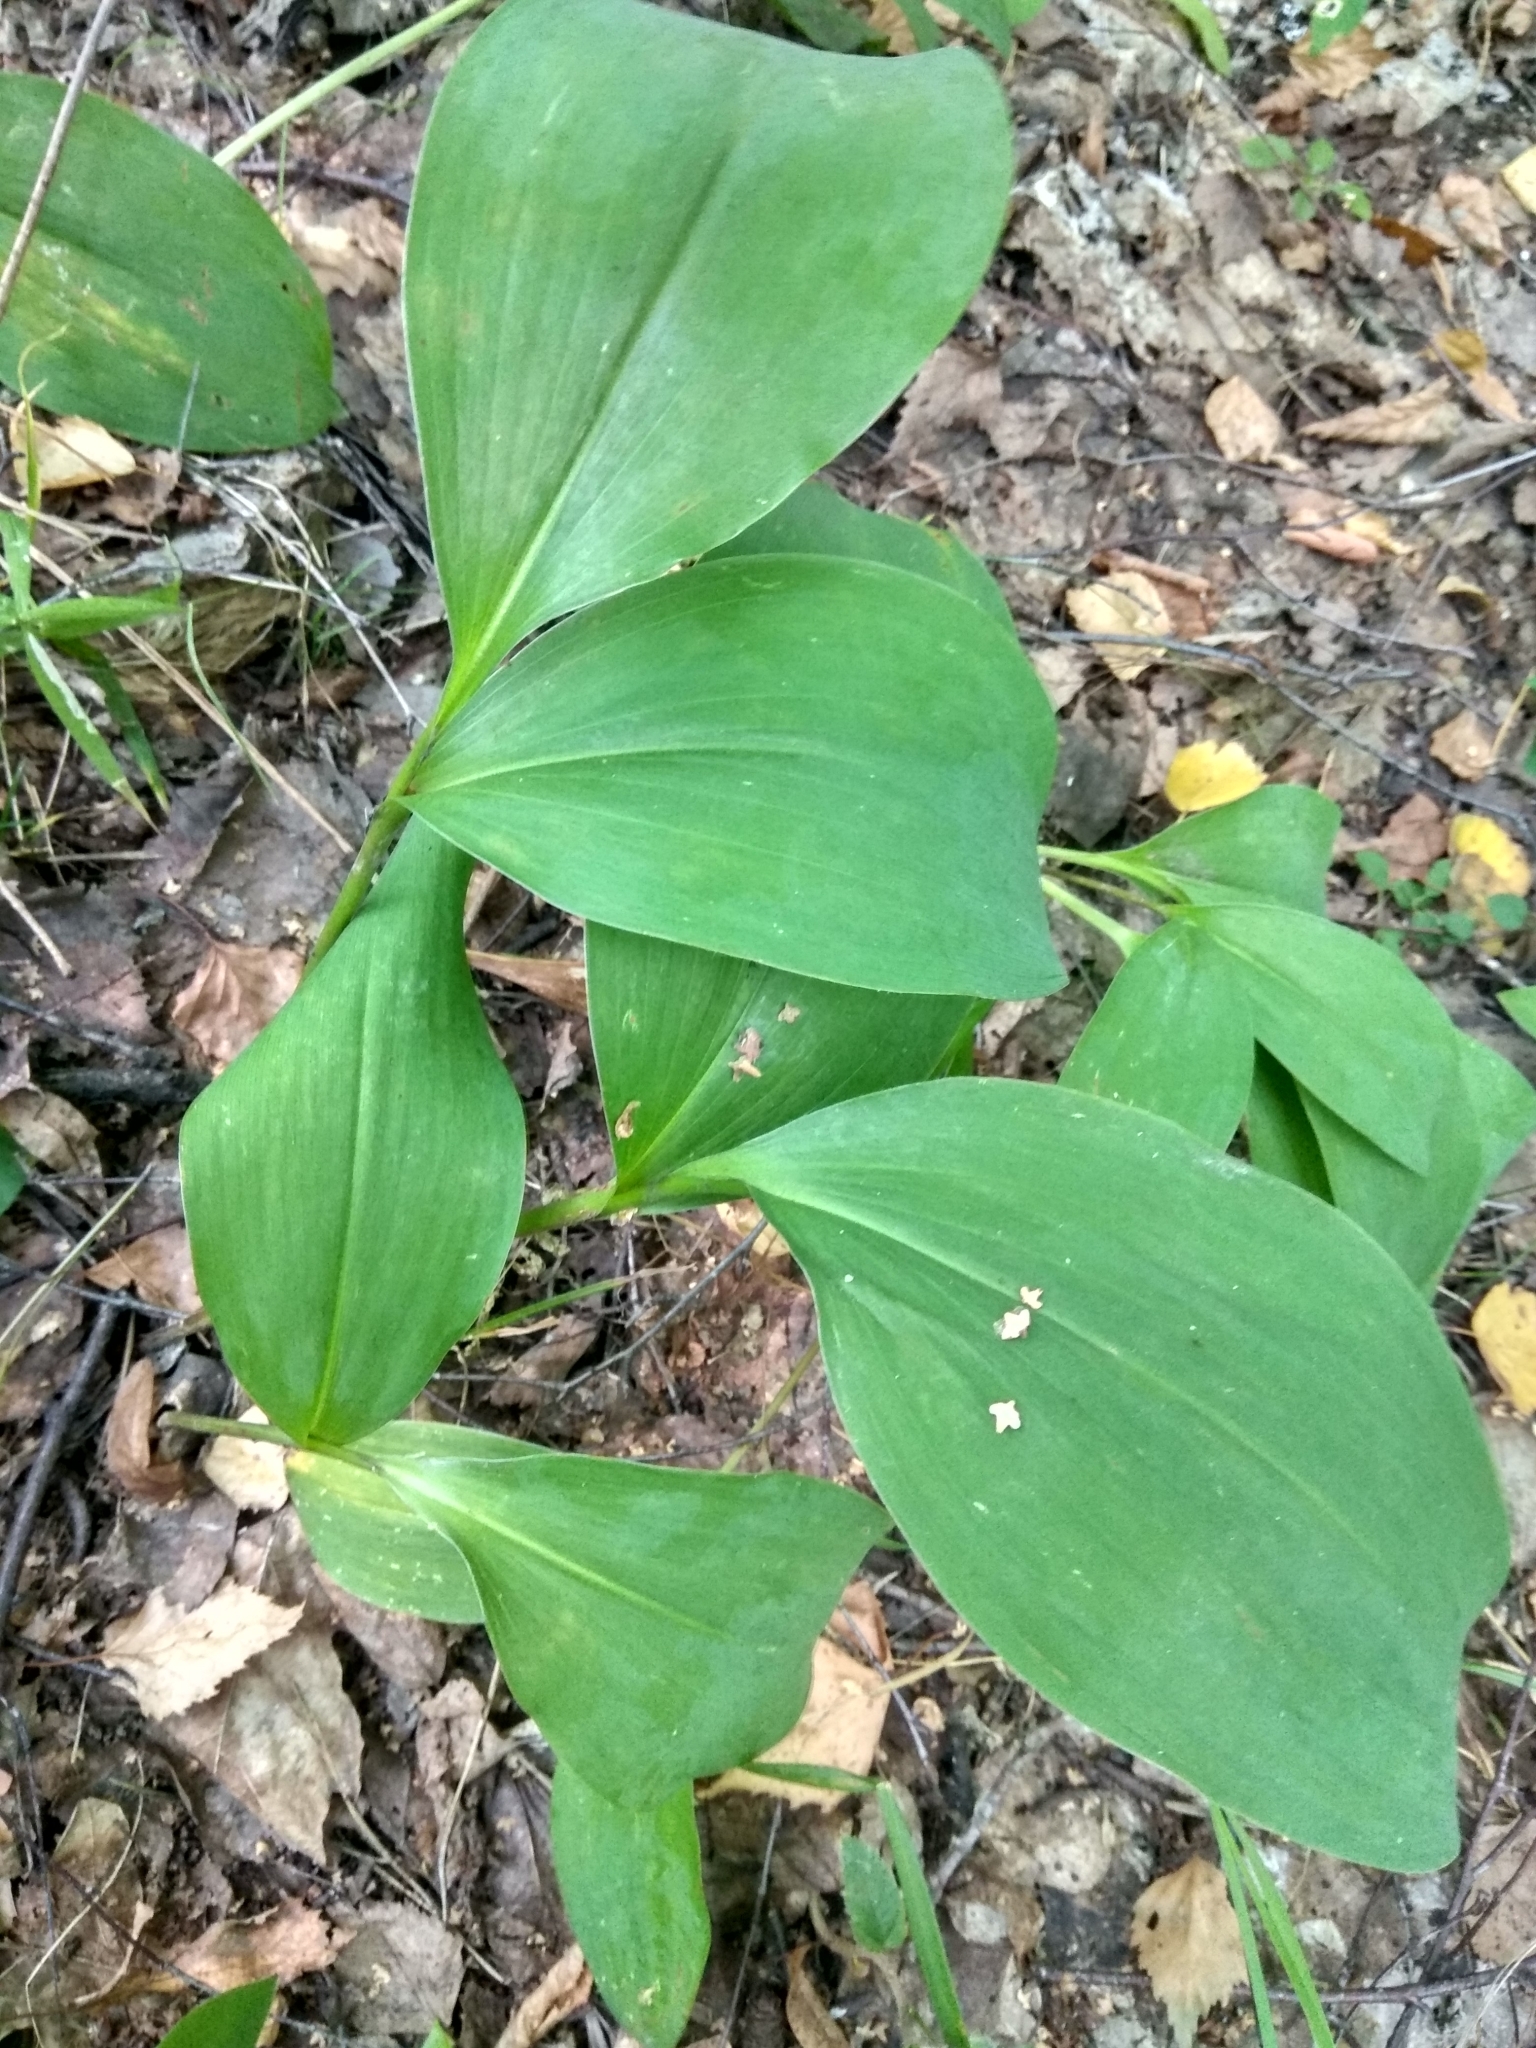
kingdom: Plantae
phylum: Tracheophyta
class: Liliopsida
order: Asparagales
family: Asparagaceae
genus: Convallaria
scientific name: Convallaria majalis
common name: Lily-of-the-valley
